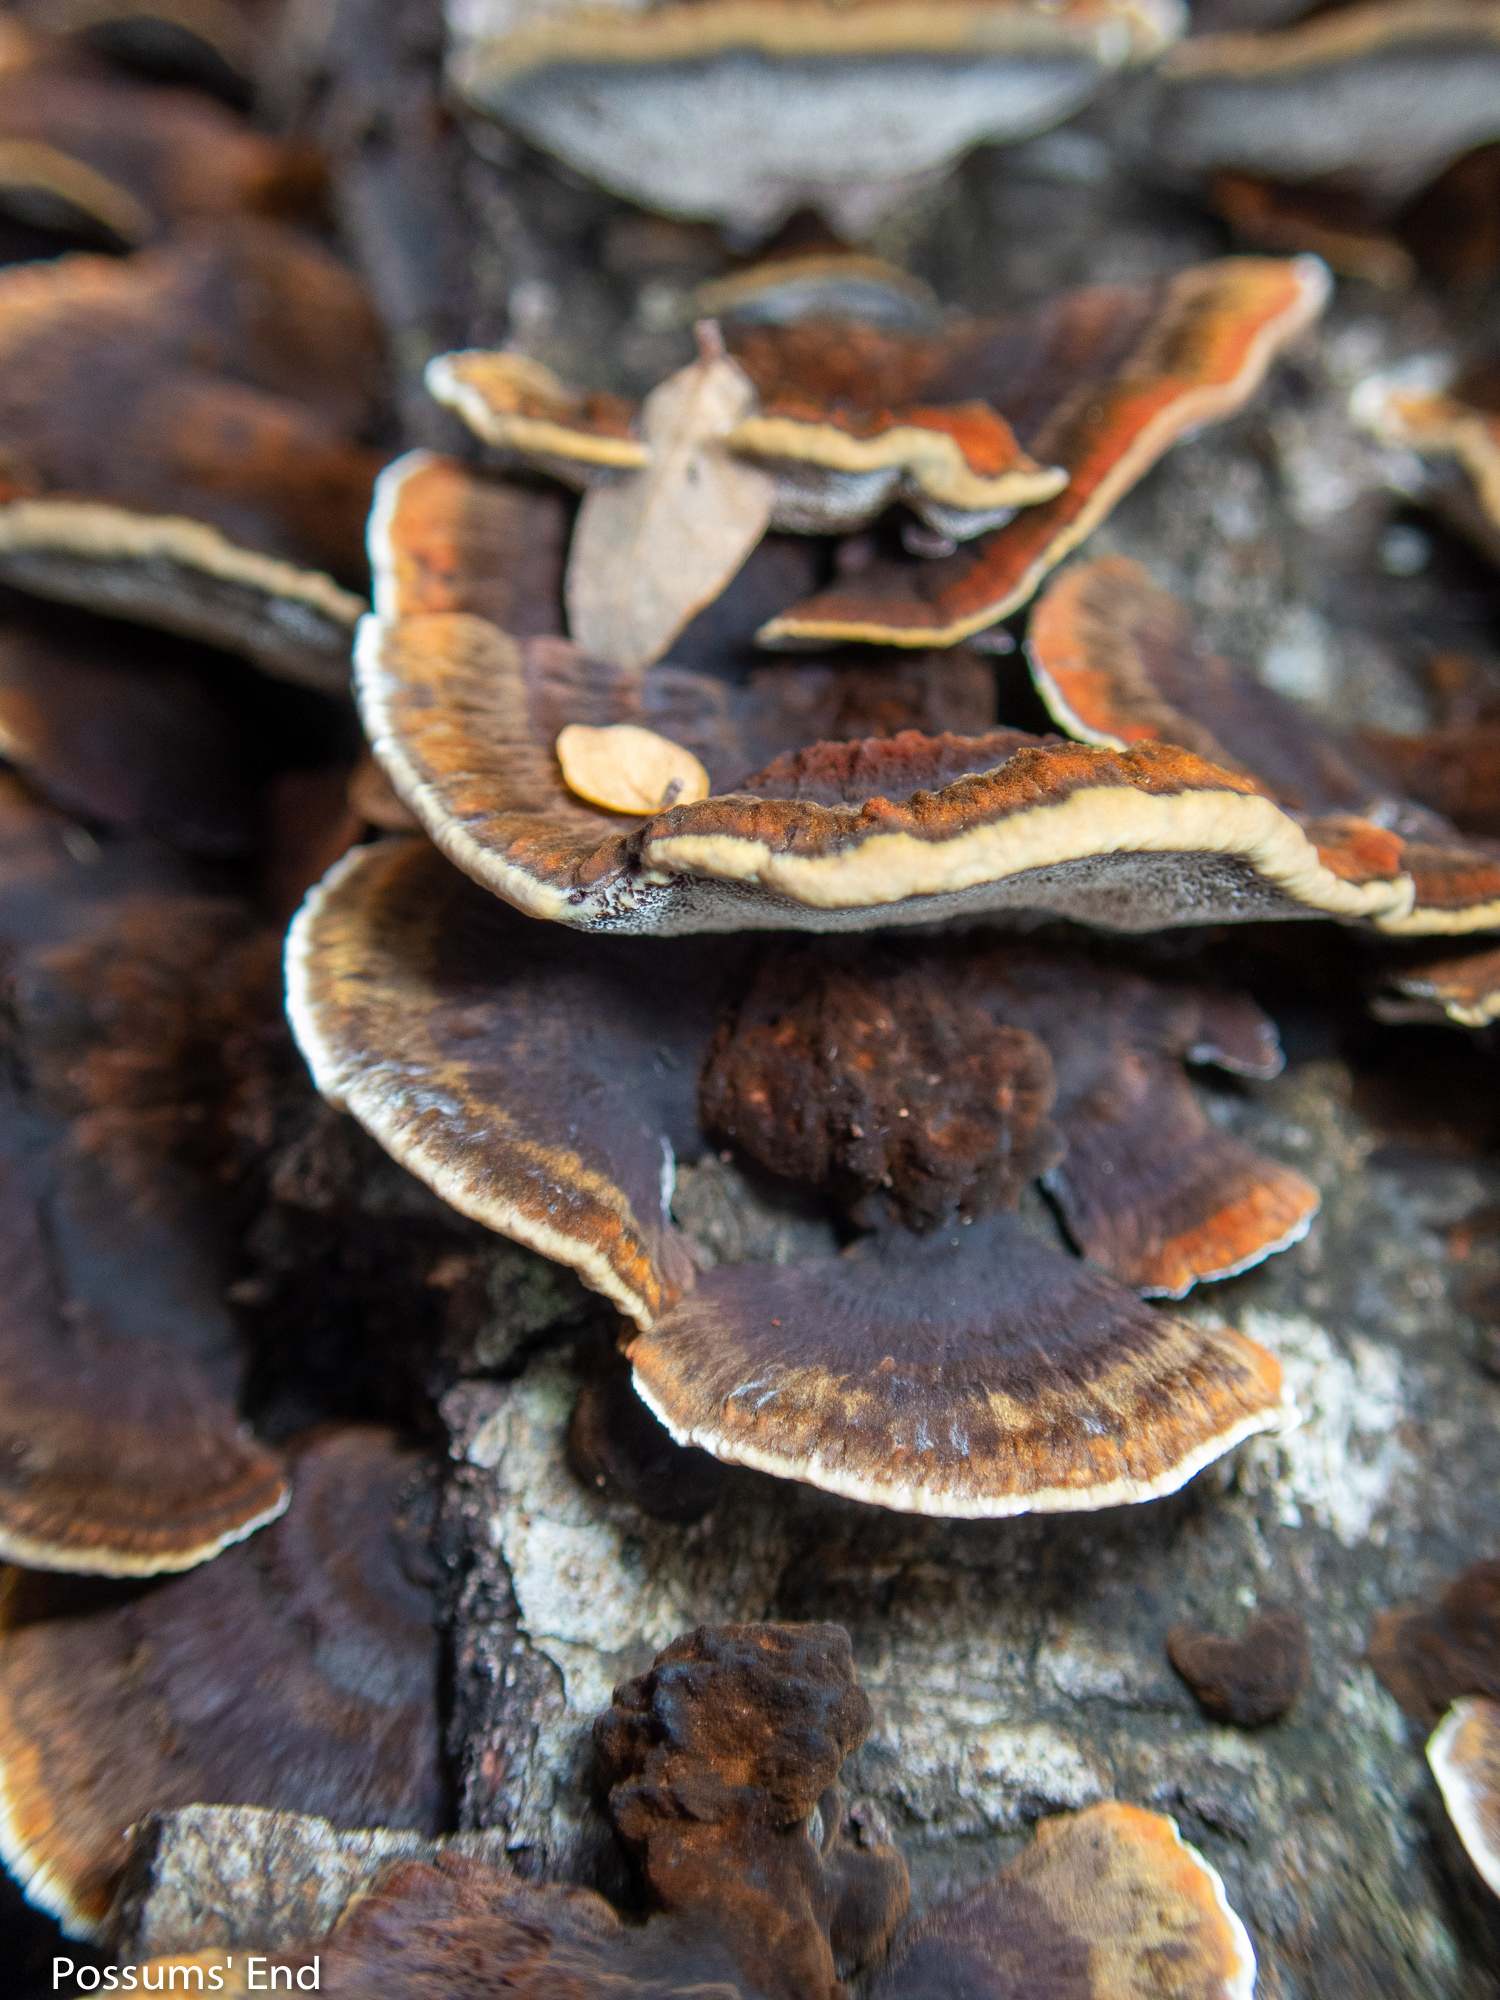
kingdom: Fungi
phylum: Basidiomycota
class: Agaricomycetes
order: Hymenochaetales
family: Hymenochaetaceae
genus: Nothonotus
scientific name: Nothonotus nothofagi
